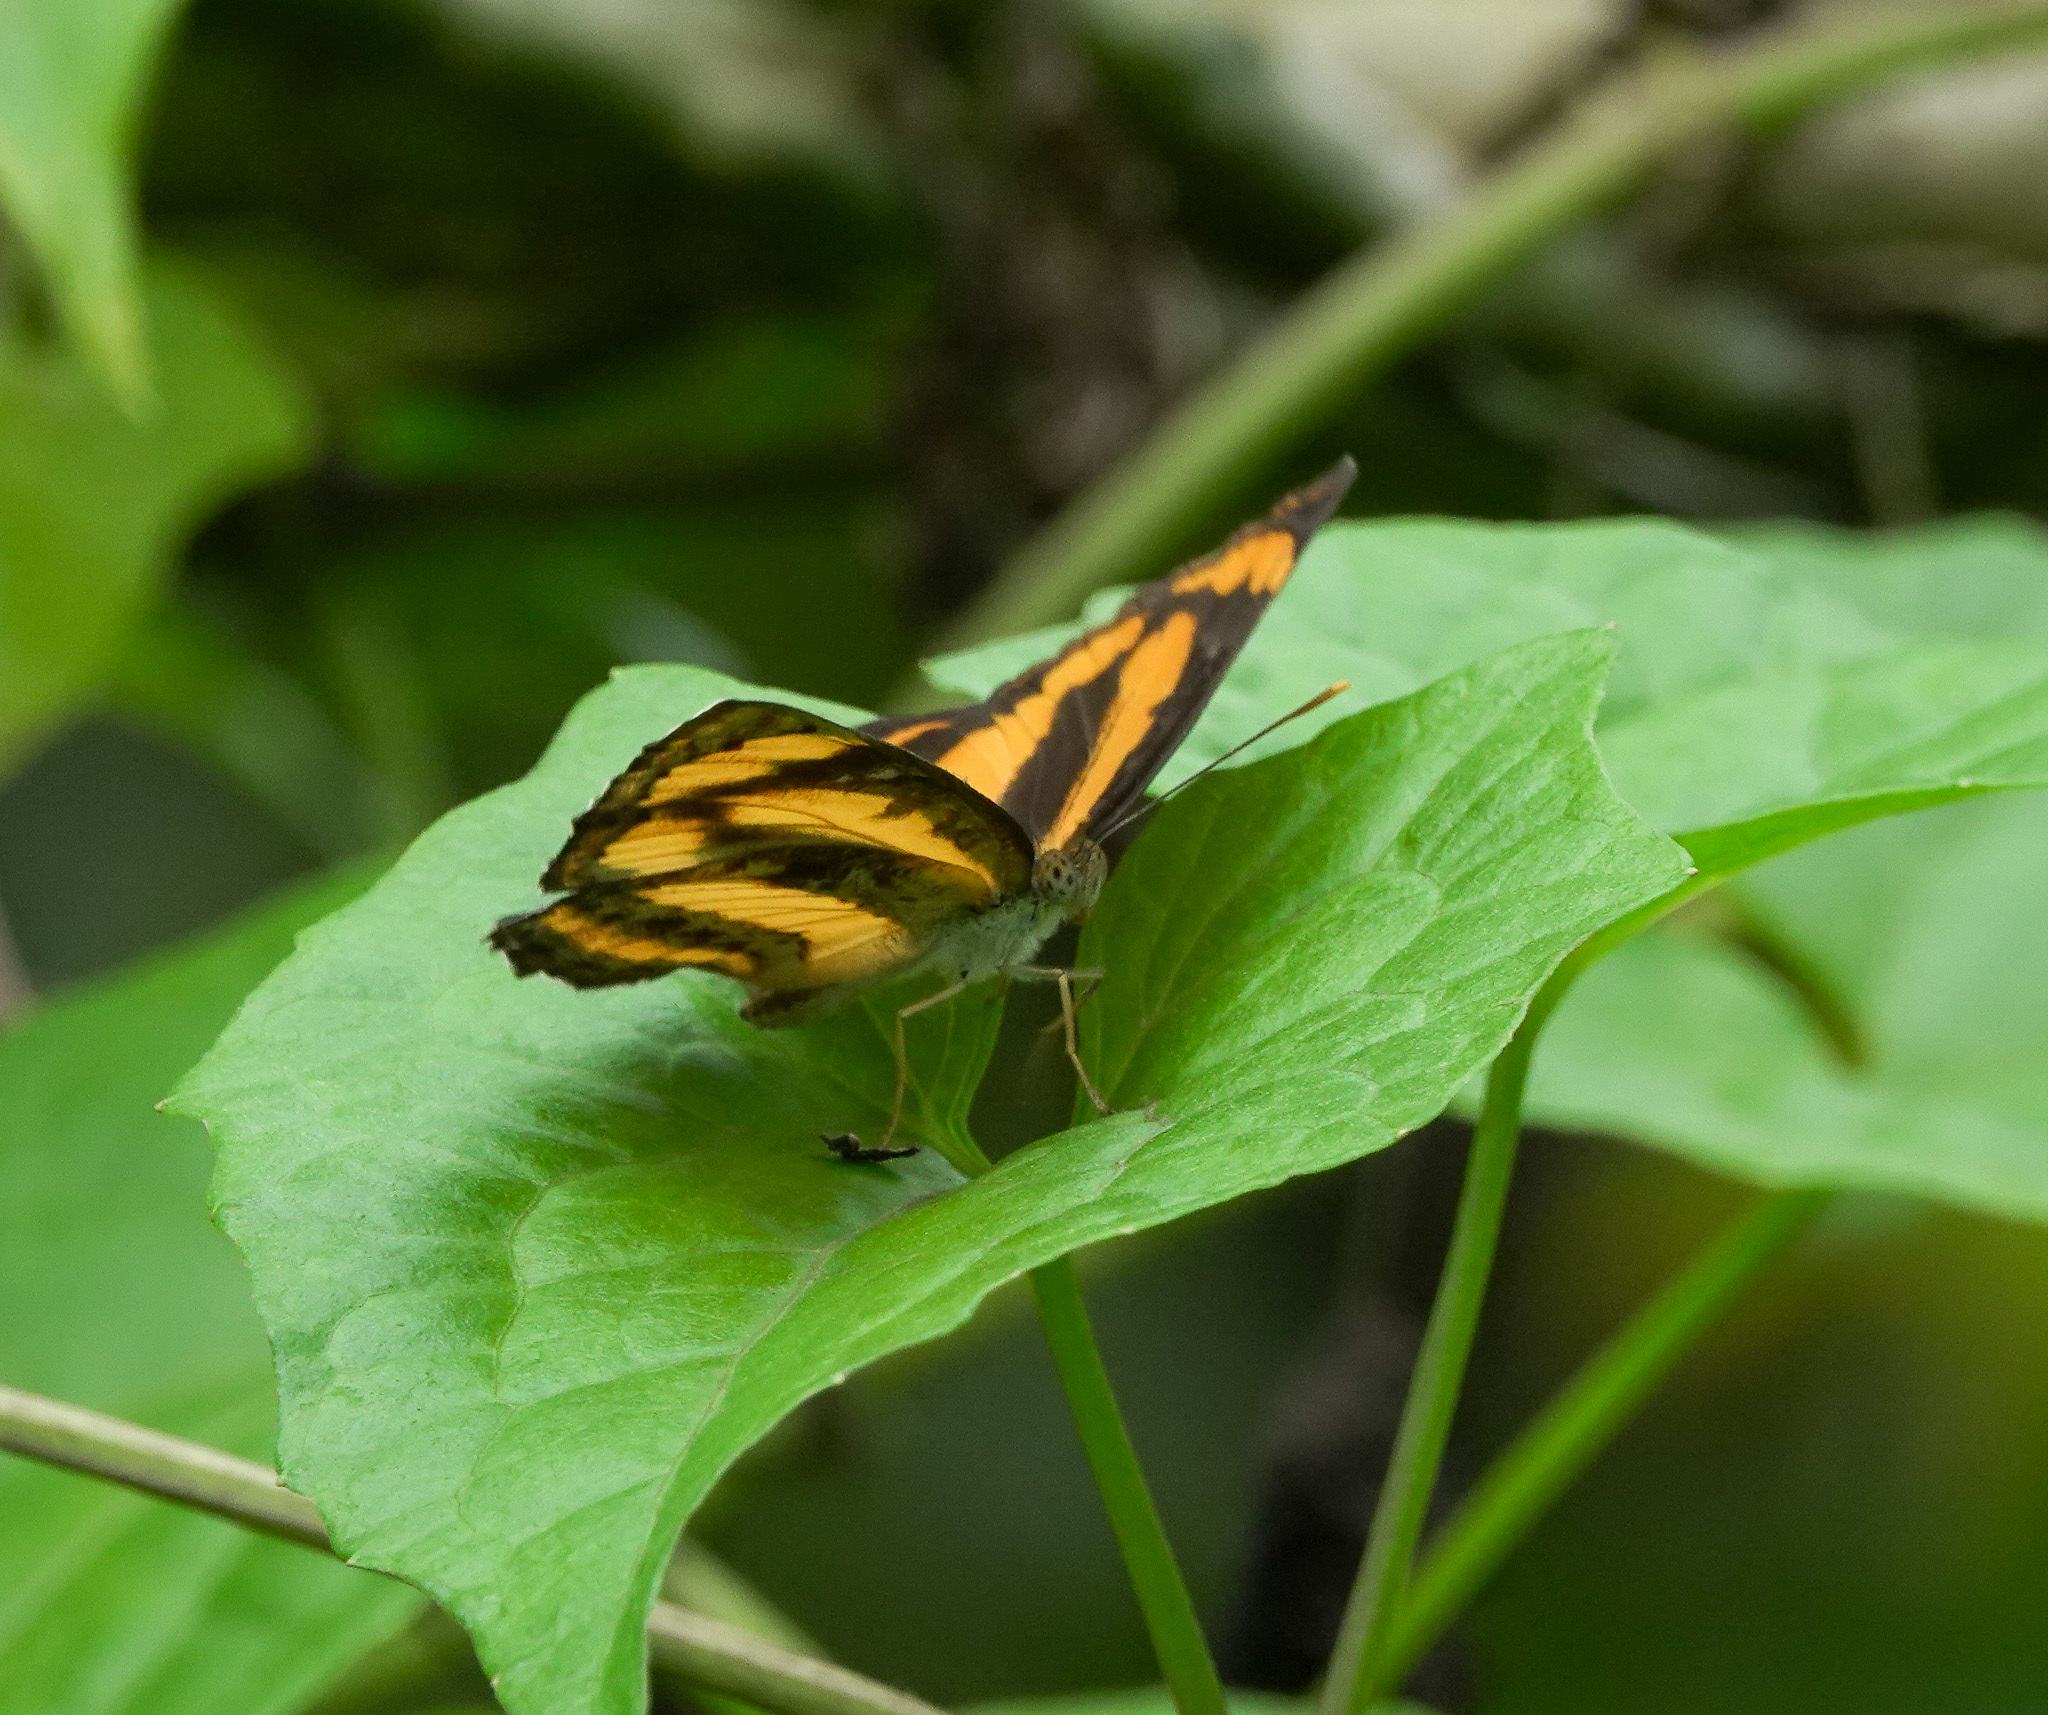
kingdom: Animalia
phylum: Arthropoda
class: Insecta
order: Lepidoptera
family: Nymphalidae
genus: Pantoporia
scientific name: Pantoporia hordonia
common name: Common lascar
